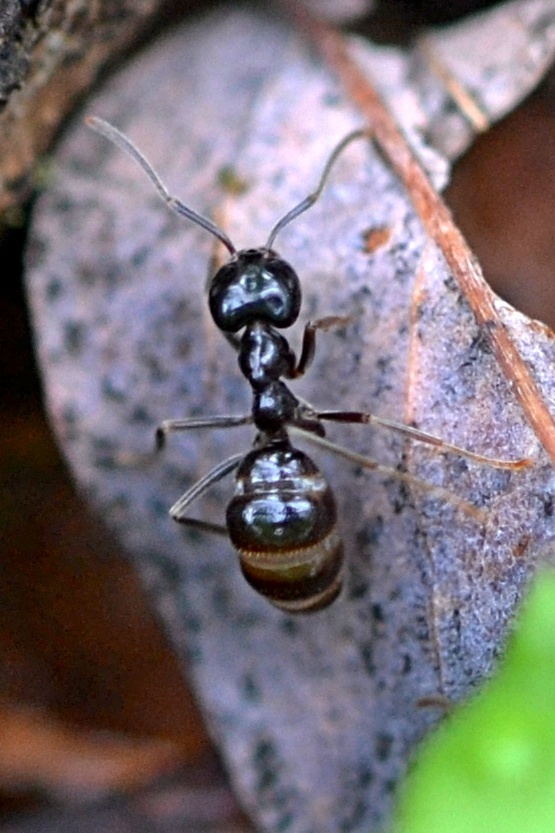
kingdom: Animalia
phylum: Arthropoda
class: Insecta
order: Hymenoptera
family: Formicidae
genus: Lasius
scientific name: Lasius fuliginosus
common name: Jet ant
